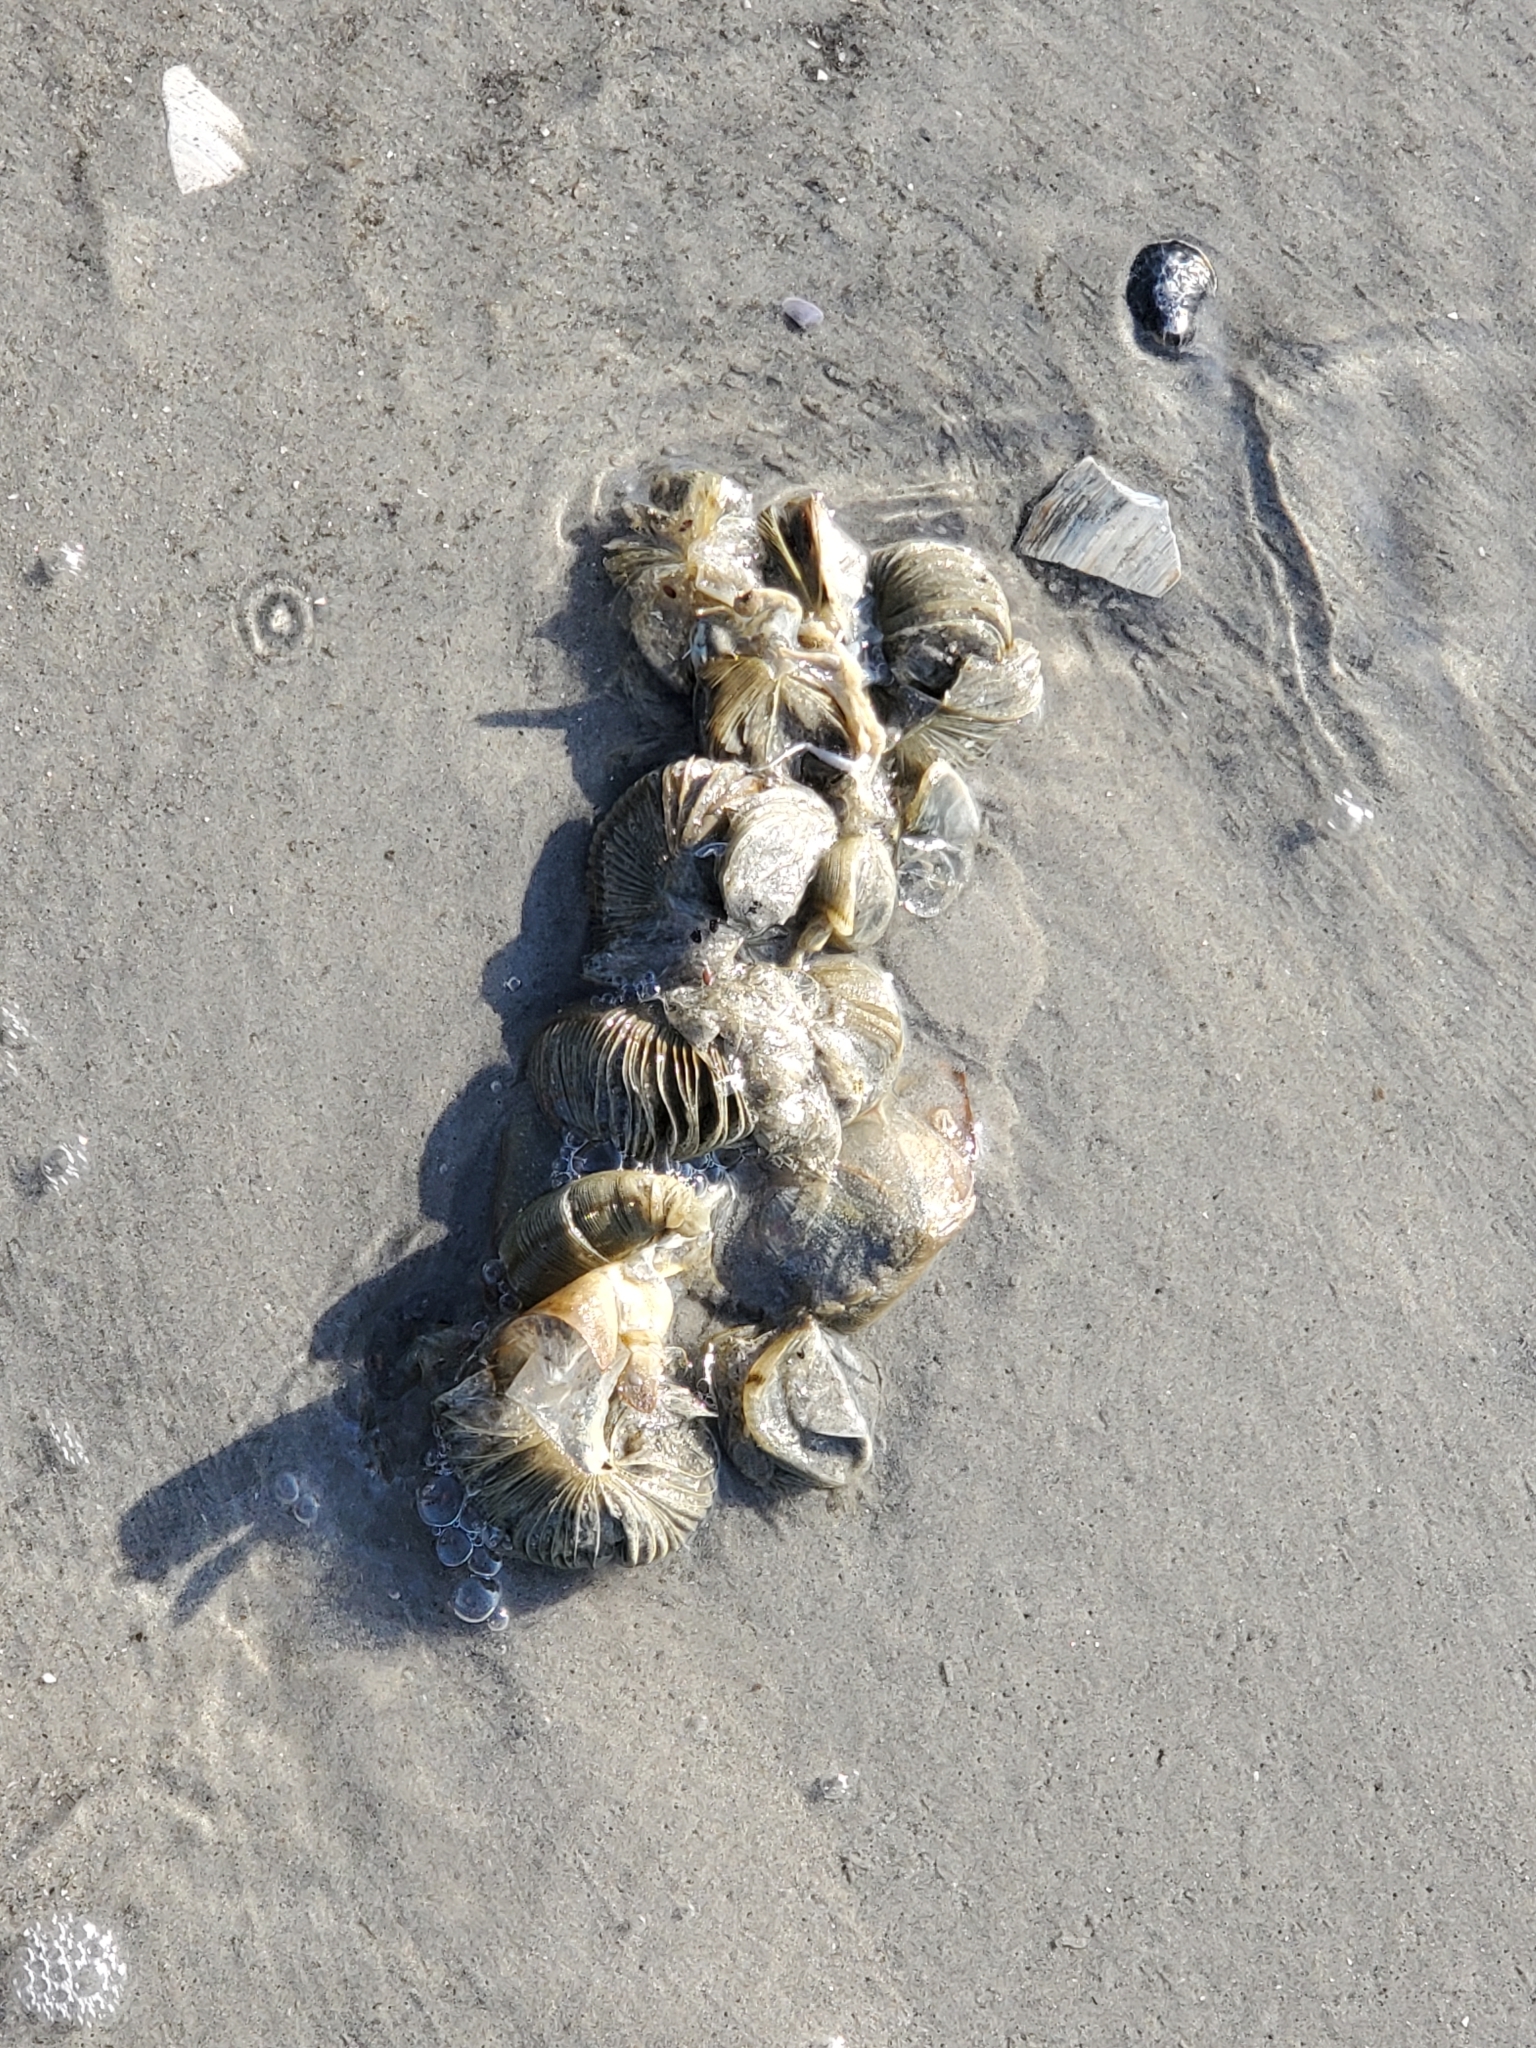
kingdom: Animalia
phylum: Arthropoda
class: Merostomata
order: Xiphosurida
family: Limulidae
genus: Limulus
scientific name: Limulus polyphemus
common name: Horseshoe crab
